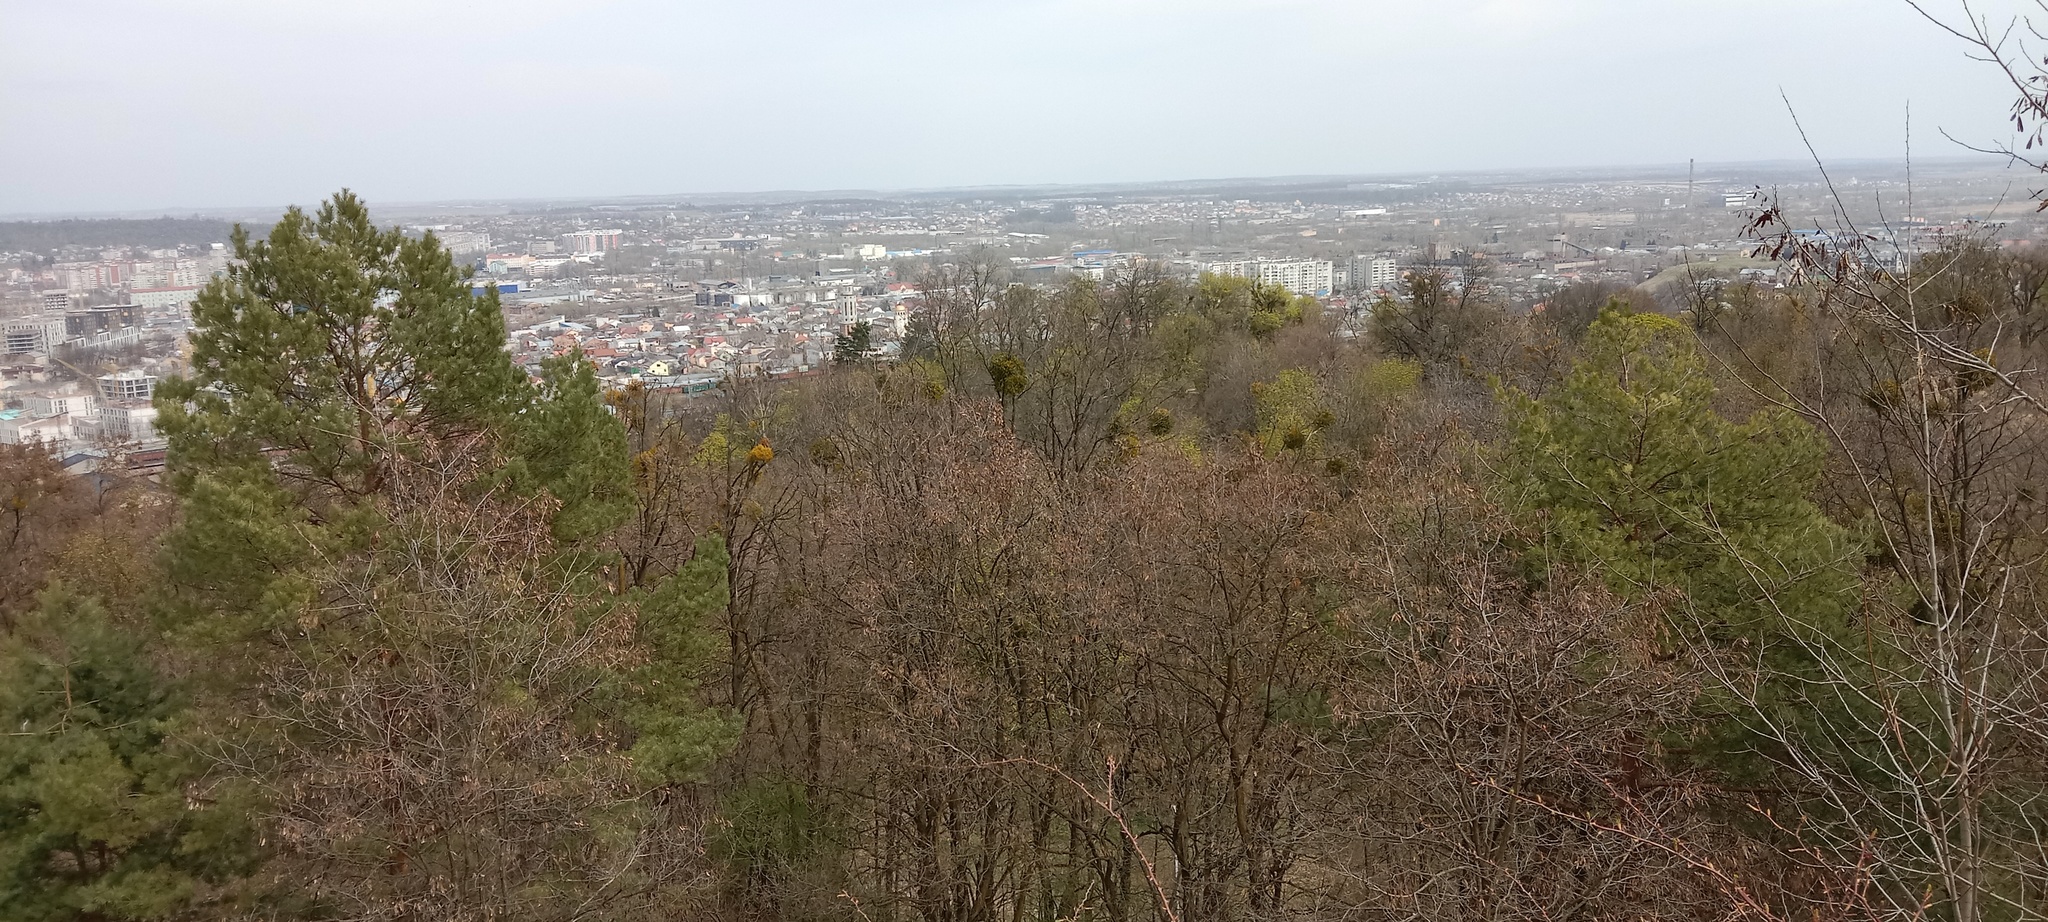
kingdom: Plantae
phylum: Tracheophyta
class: Magnoliopsida
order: Santalales
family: Viscaceae
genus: Viscum
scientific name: Viscum album
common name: Mistletoe
